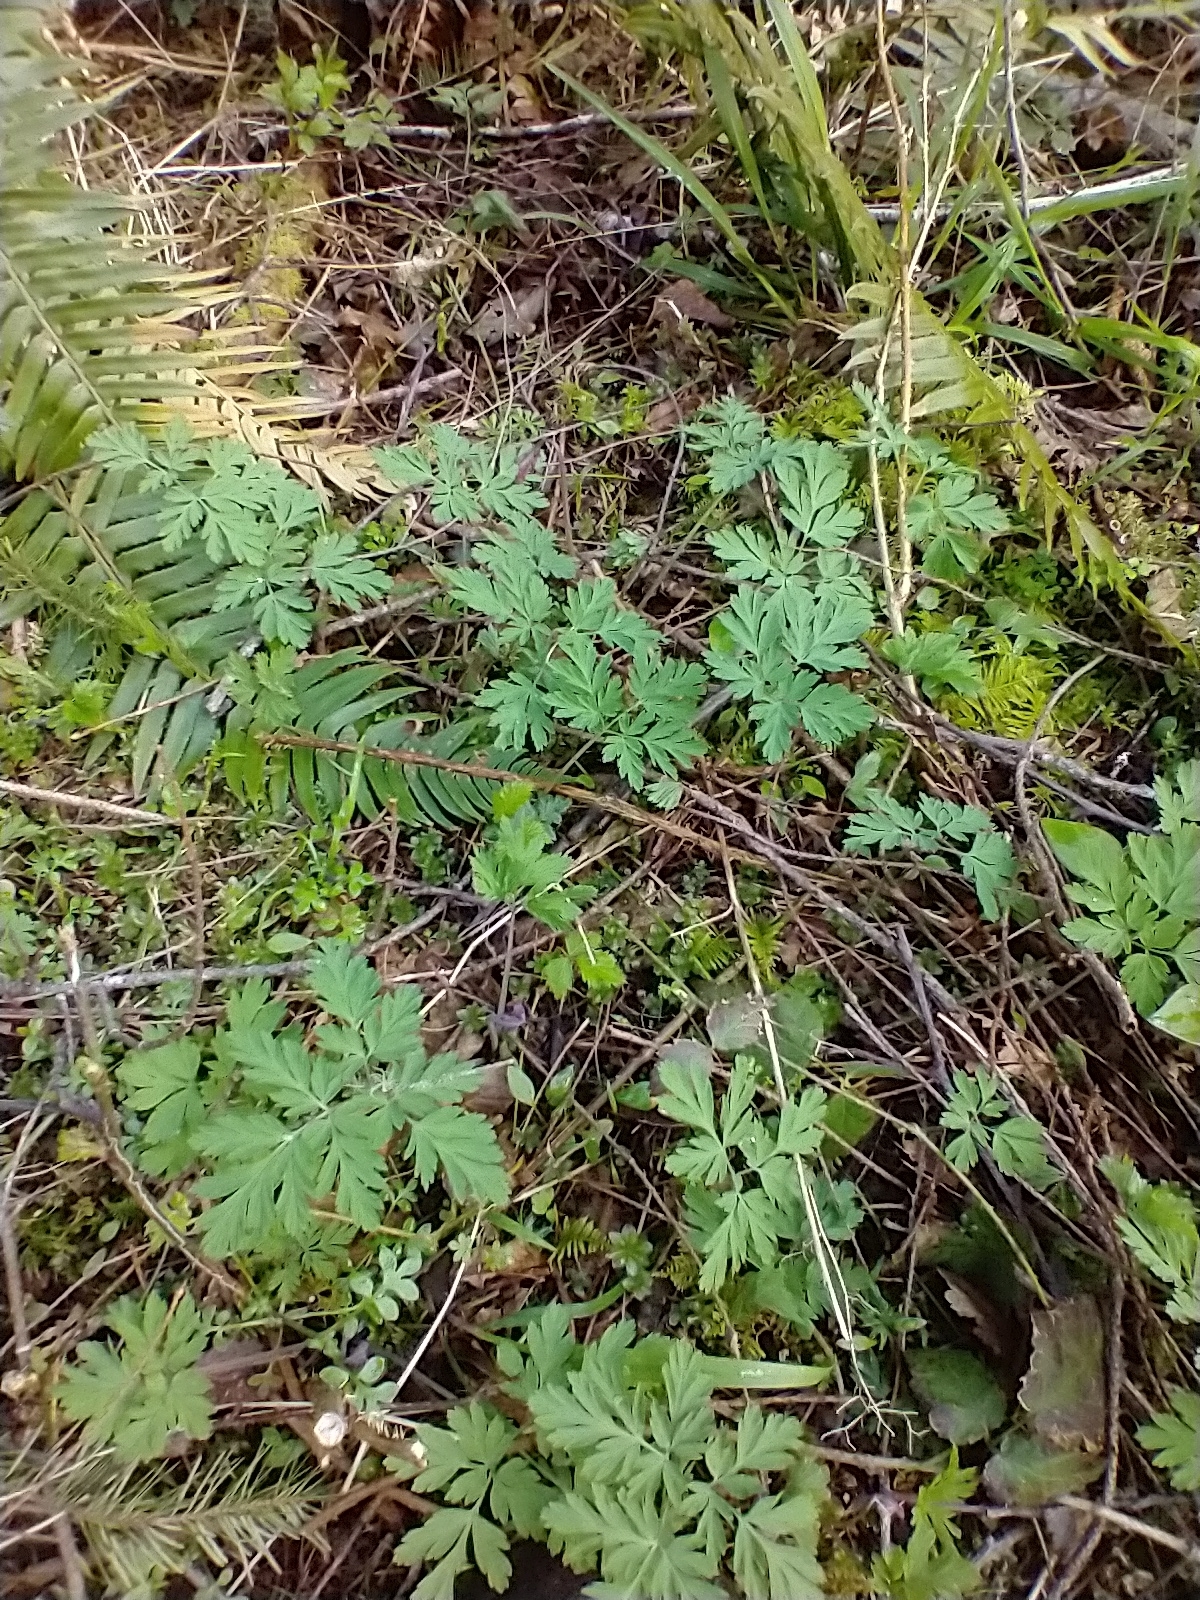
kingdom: Plantae
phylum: Tracheophyta
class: Magnoliopsida
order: Ranunculales
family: Papaveraceae
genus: Dicentra
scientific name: Dicentra formosa
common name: Bleeding-heart
